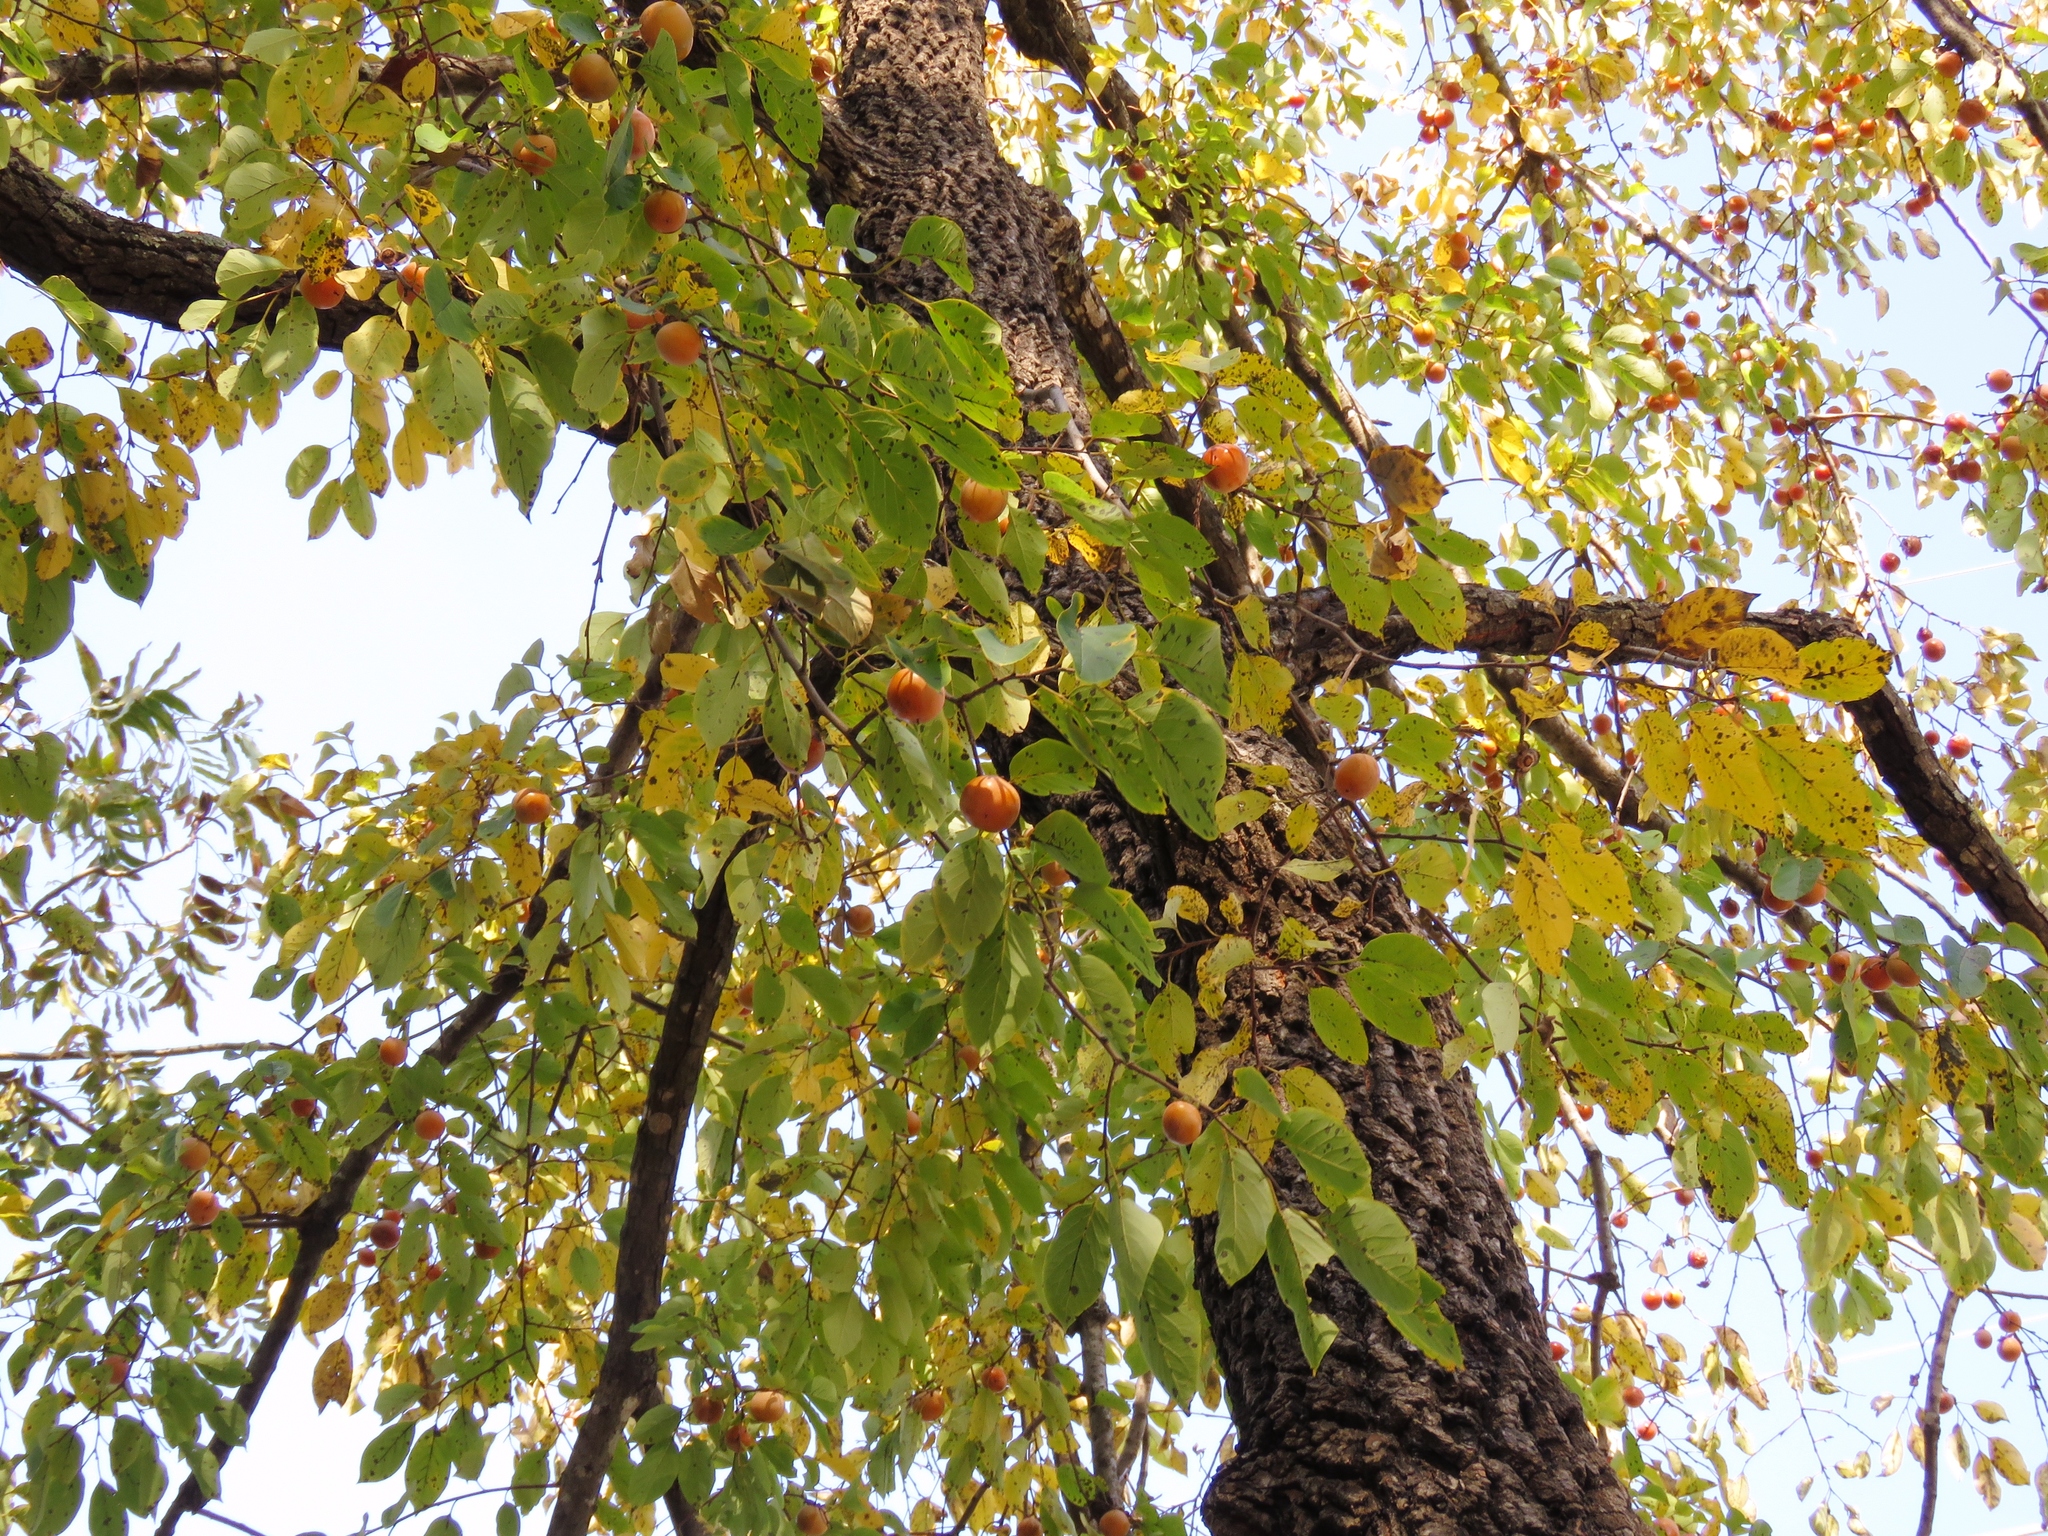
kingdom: Plantae
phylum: Tracheophyta
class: Magnoliopsida
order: Ericales
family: Ebenaceae
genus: Diospyros
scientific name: Diospyros virginiana
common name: Persimmon
